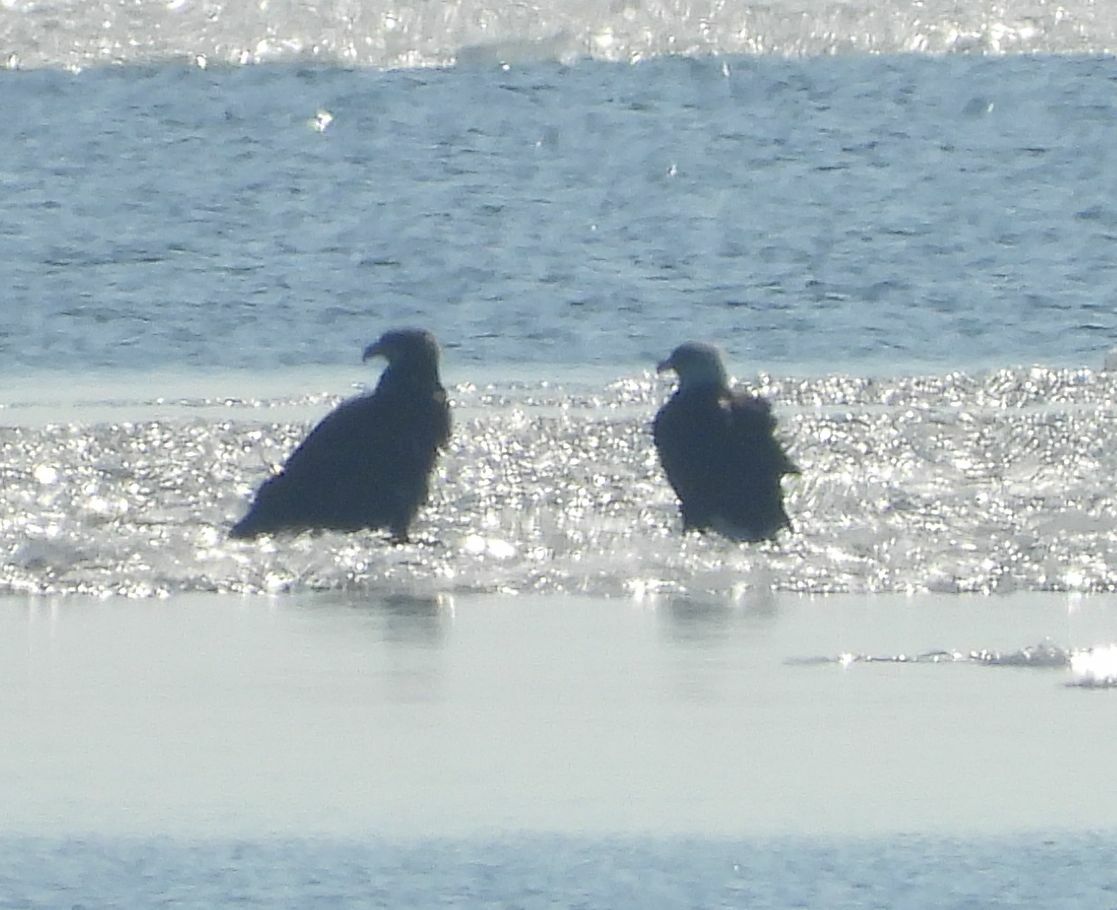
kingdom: Animalia
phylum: Chordata
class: Aves
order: Accipitriformes
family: Accipitridae
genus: Haliaeetus
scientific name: Haliaeetus leucocephalus
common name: Bald eagle
